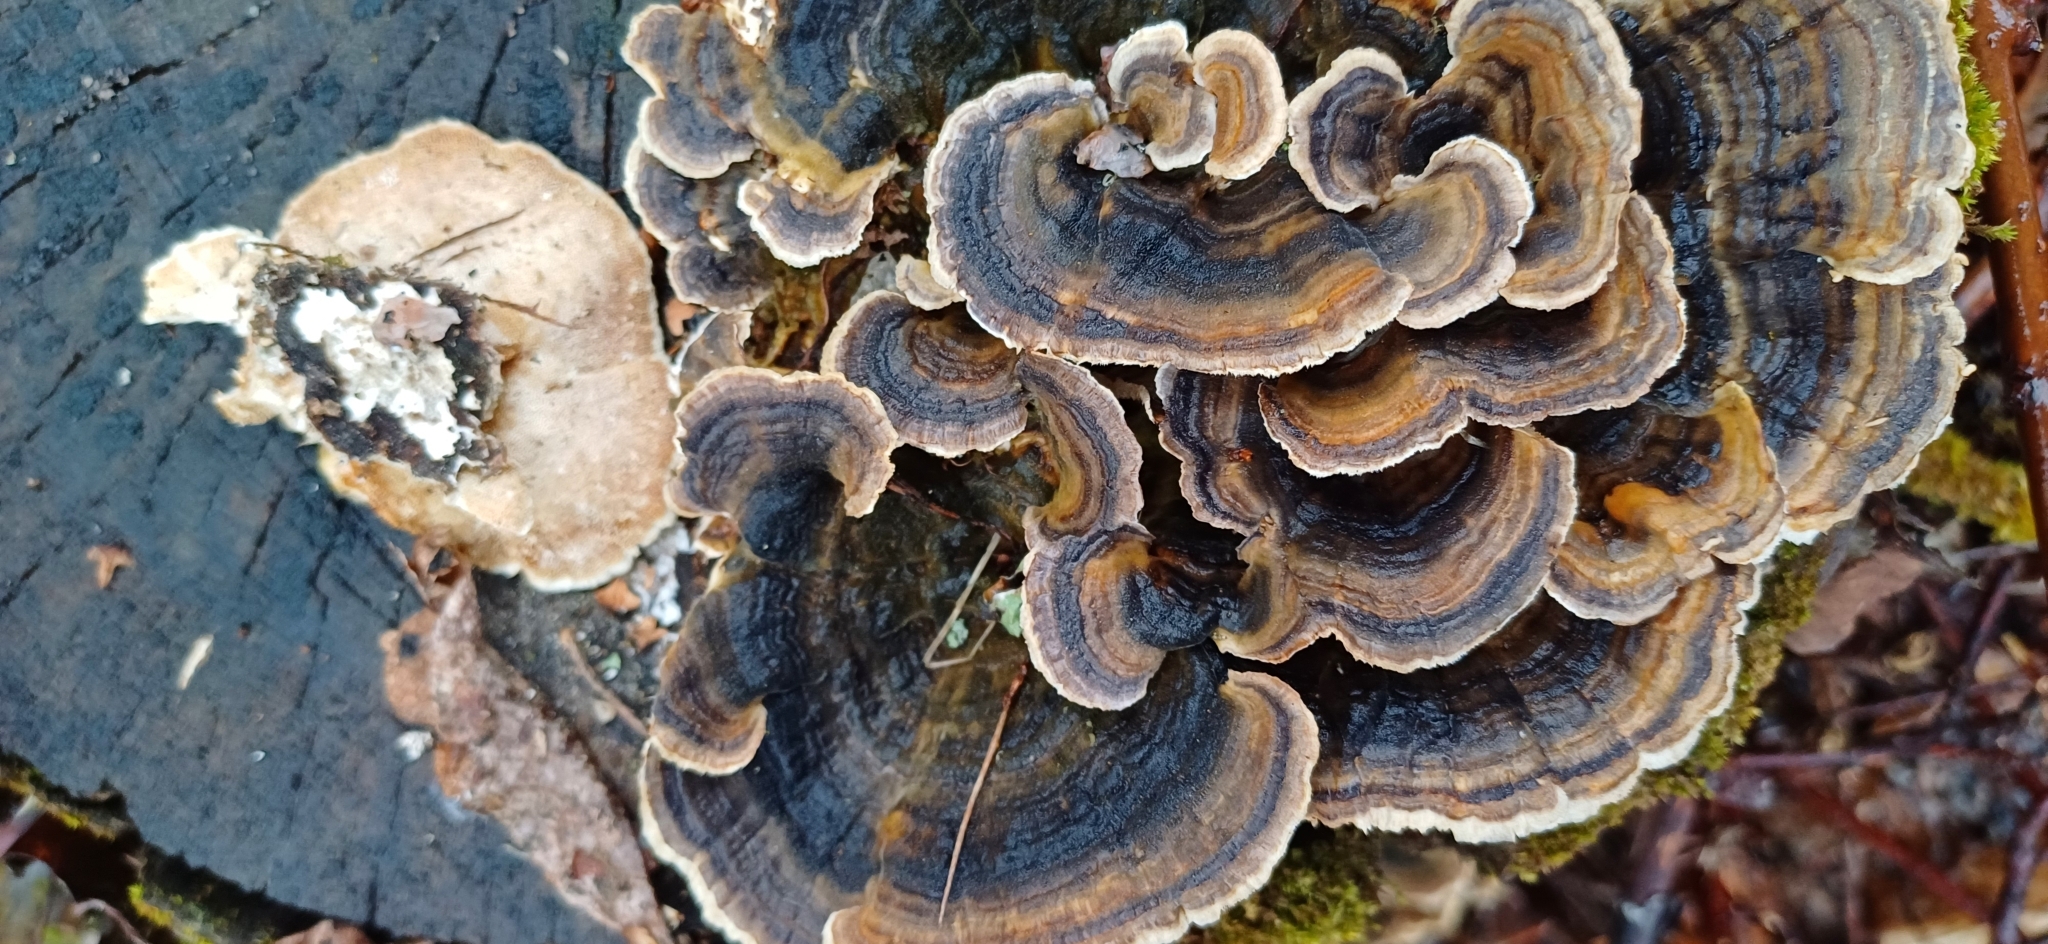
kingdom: Fungi
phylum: Basidiomycota
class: Agaricomycetes
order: Polyporales
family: Polyporaceae
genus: Trametes
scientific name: Trametes versicolor
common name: Turkeytail
